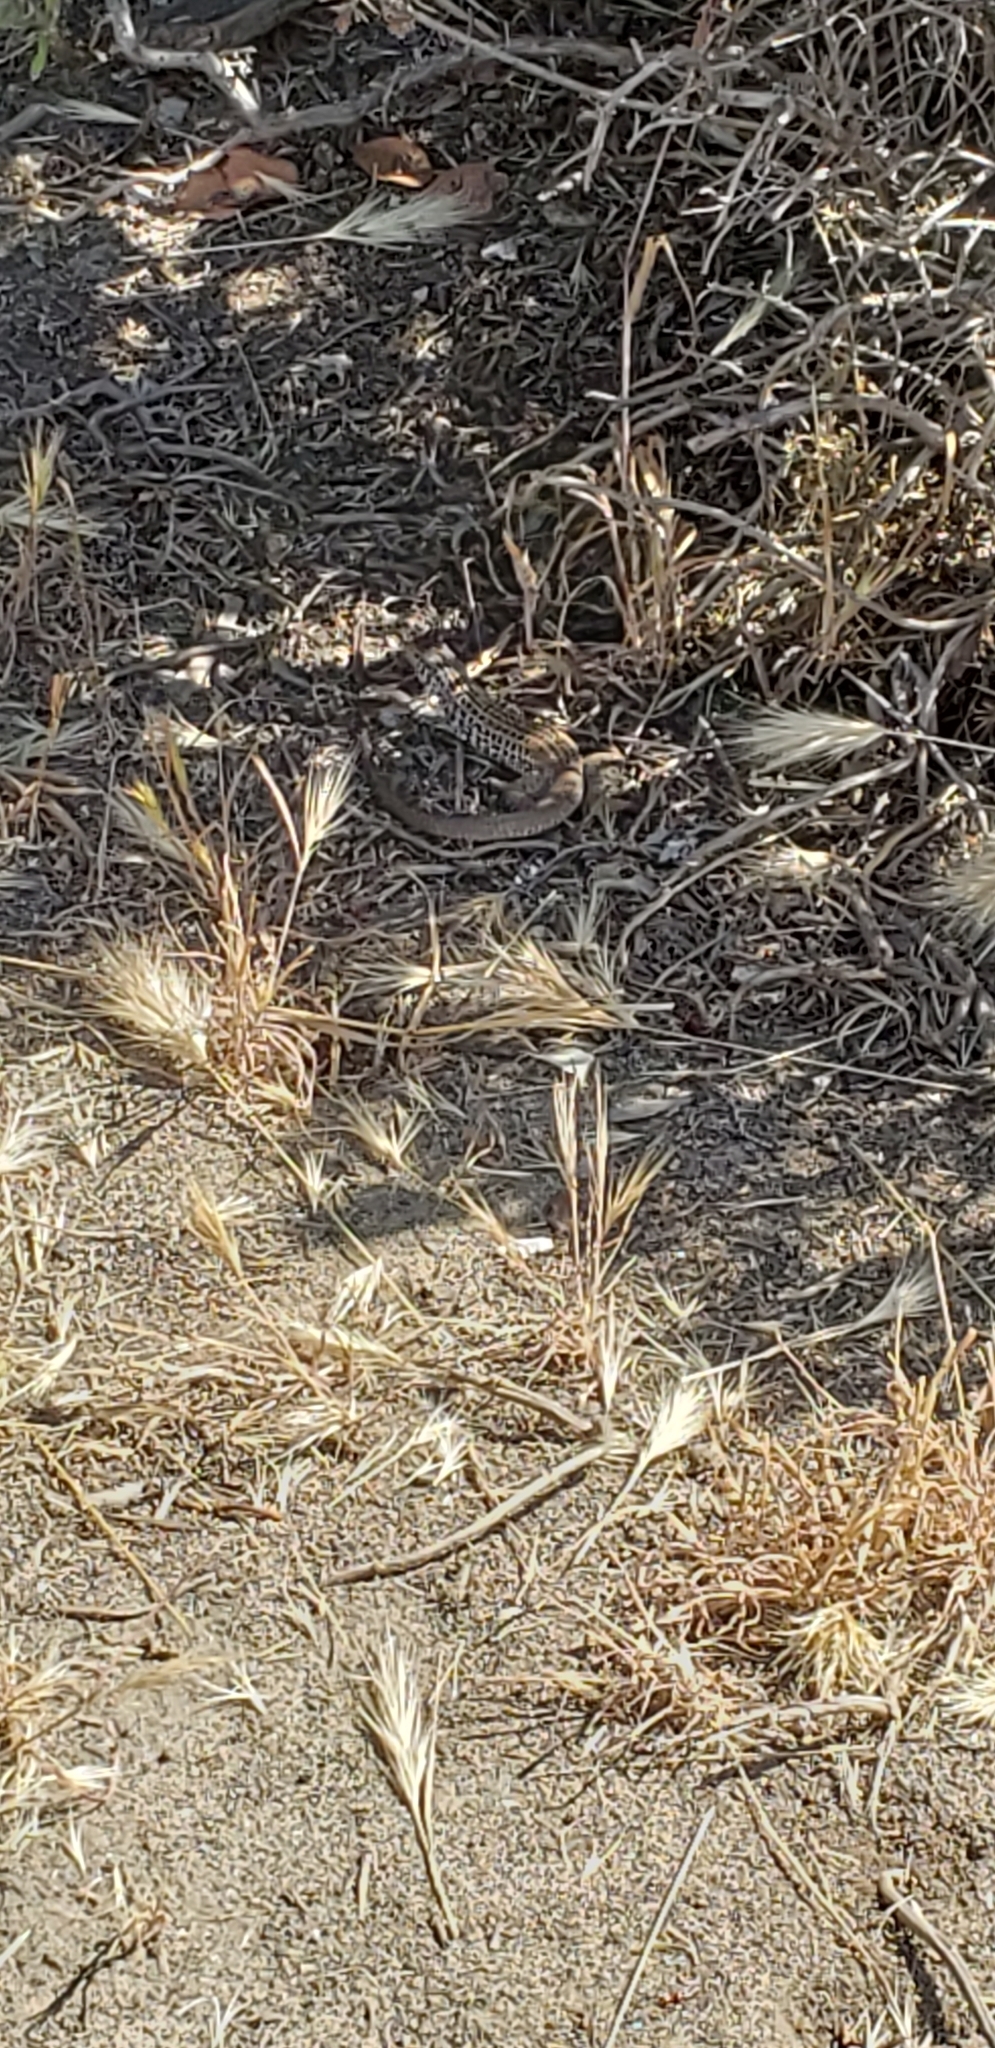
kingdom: Animalia
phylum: Chordata
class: Squamata
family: Teiidae
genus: Aspidoscelis
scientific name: Aspidoscelis tigris
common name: Tiger whiptail
